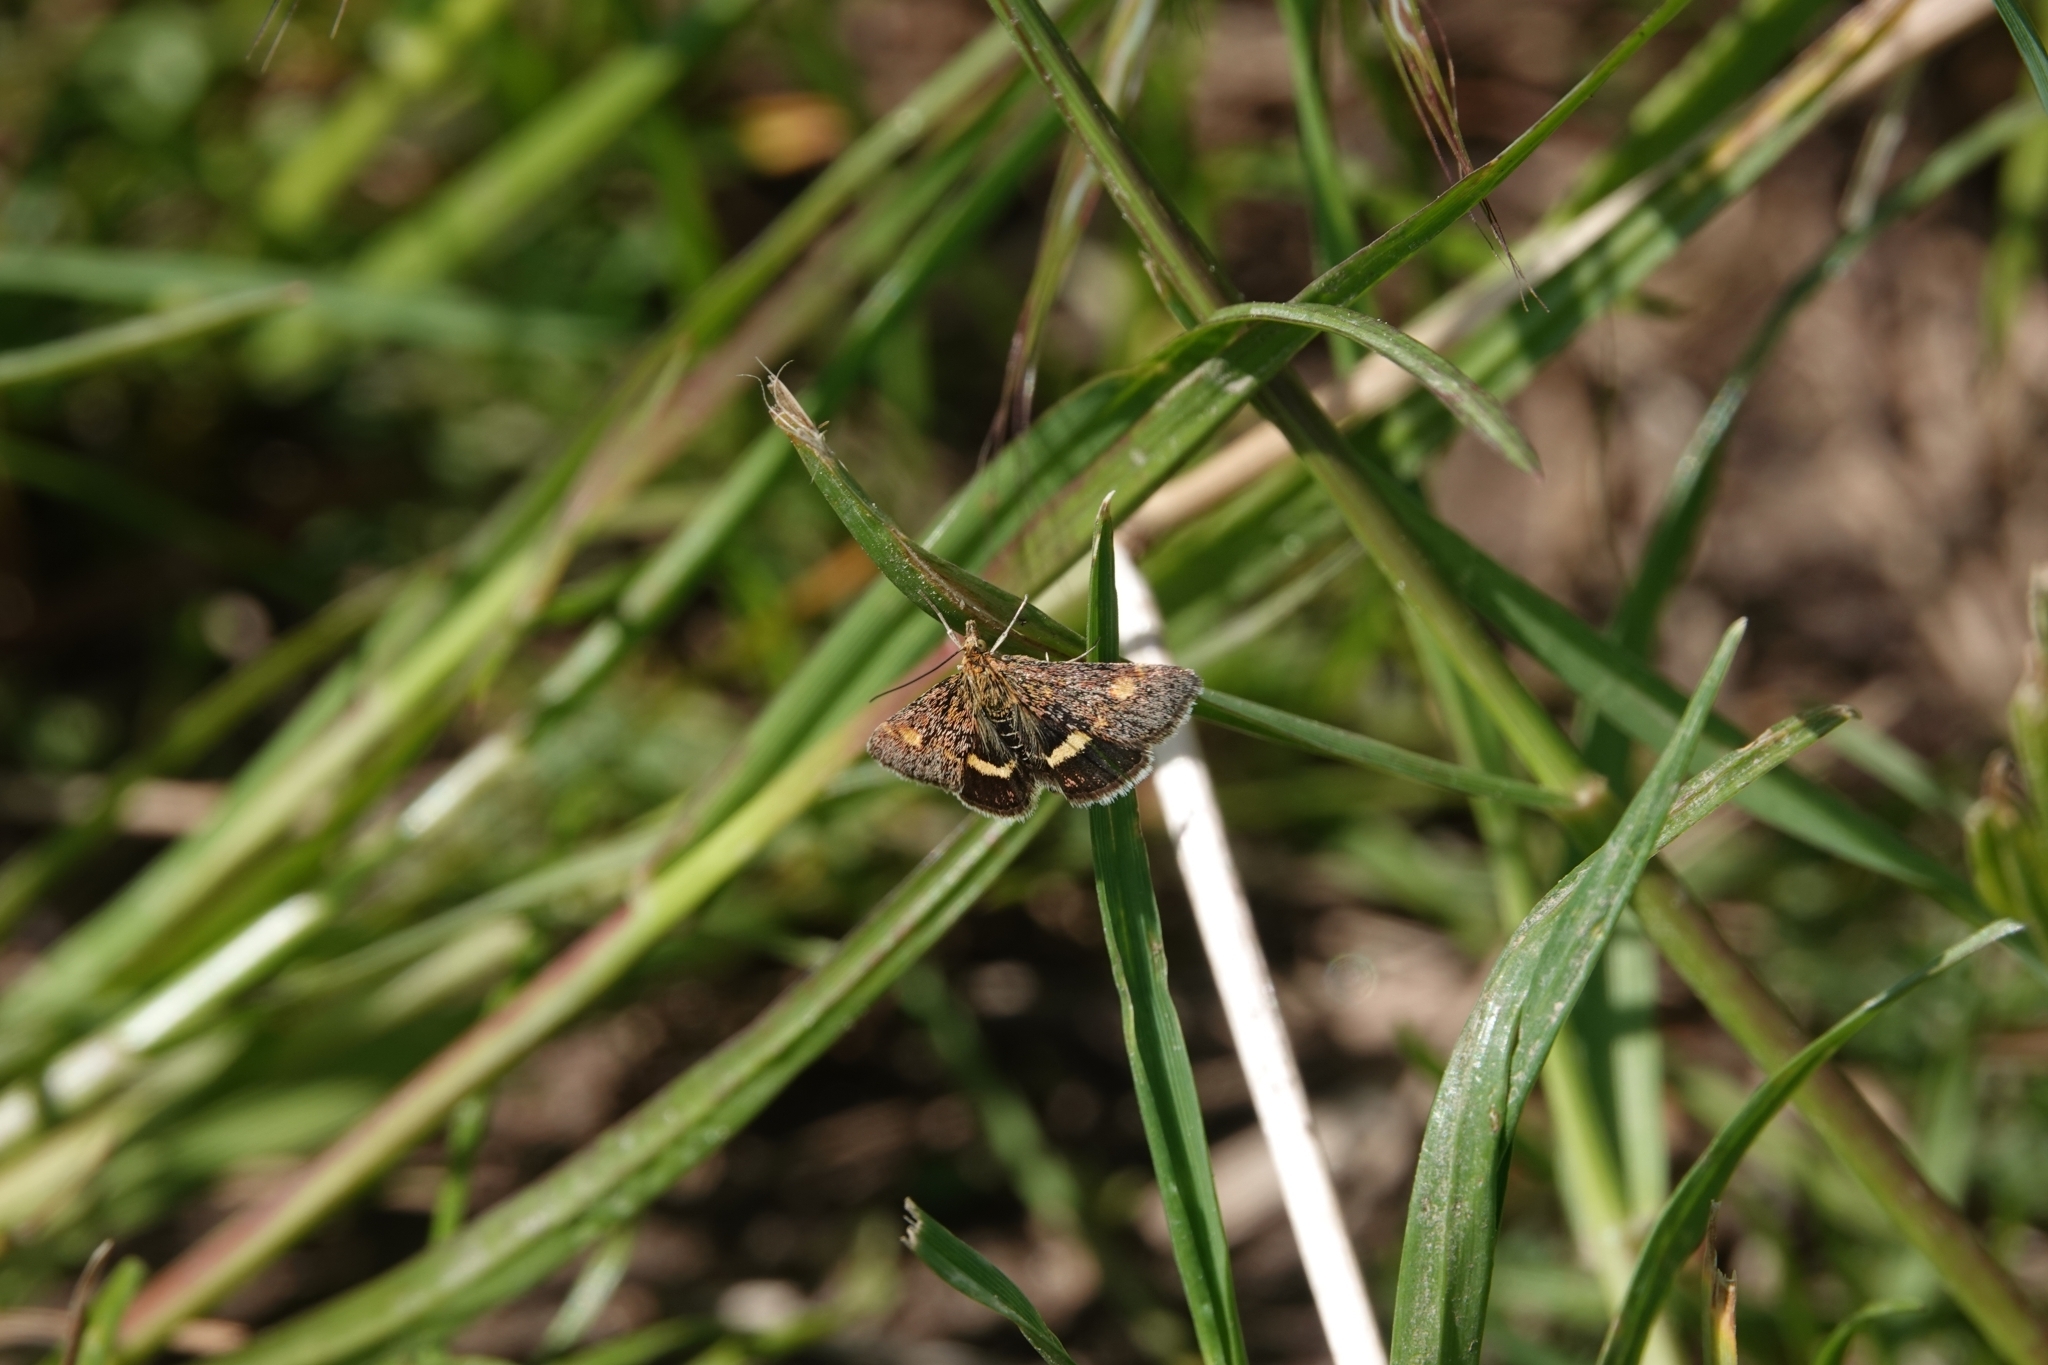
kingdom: Animalia
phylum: Arthropoda
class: Insecta
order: Lepidoptera
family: Crambidae
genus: Pyrausta
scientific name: Pyrausta aurata
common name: Small purple & gold
